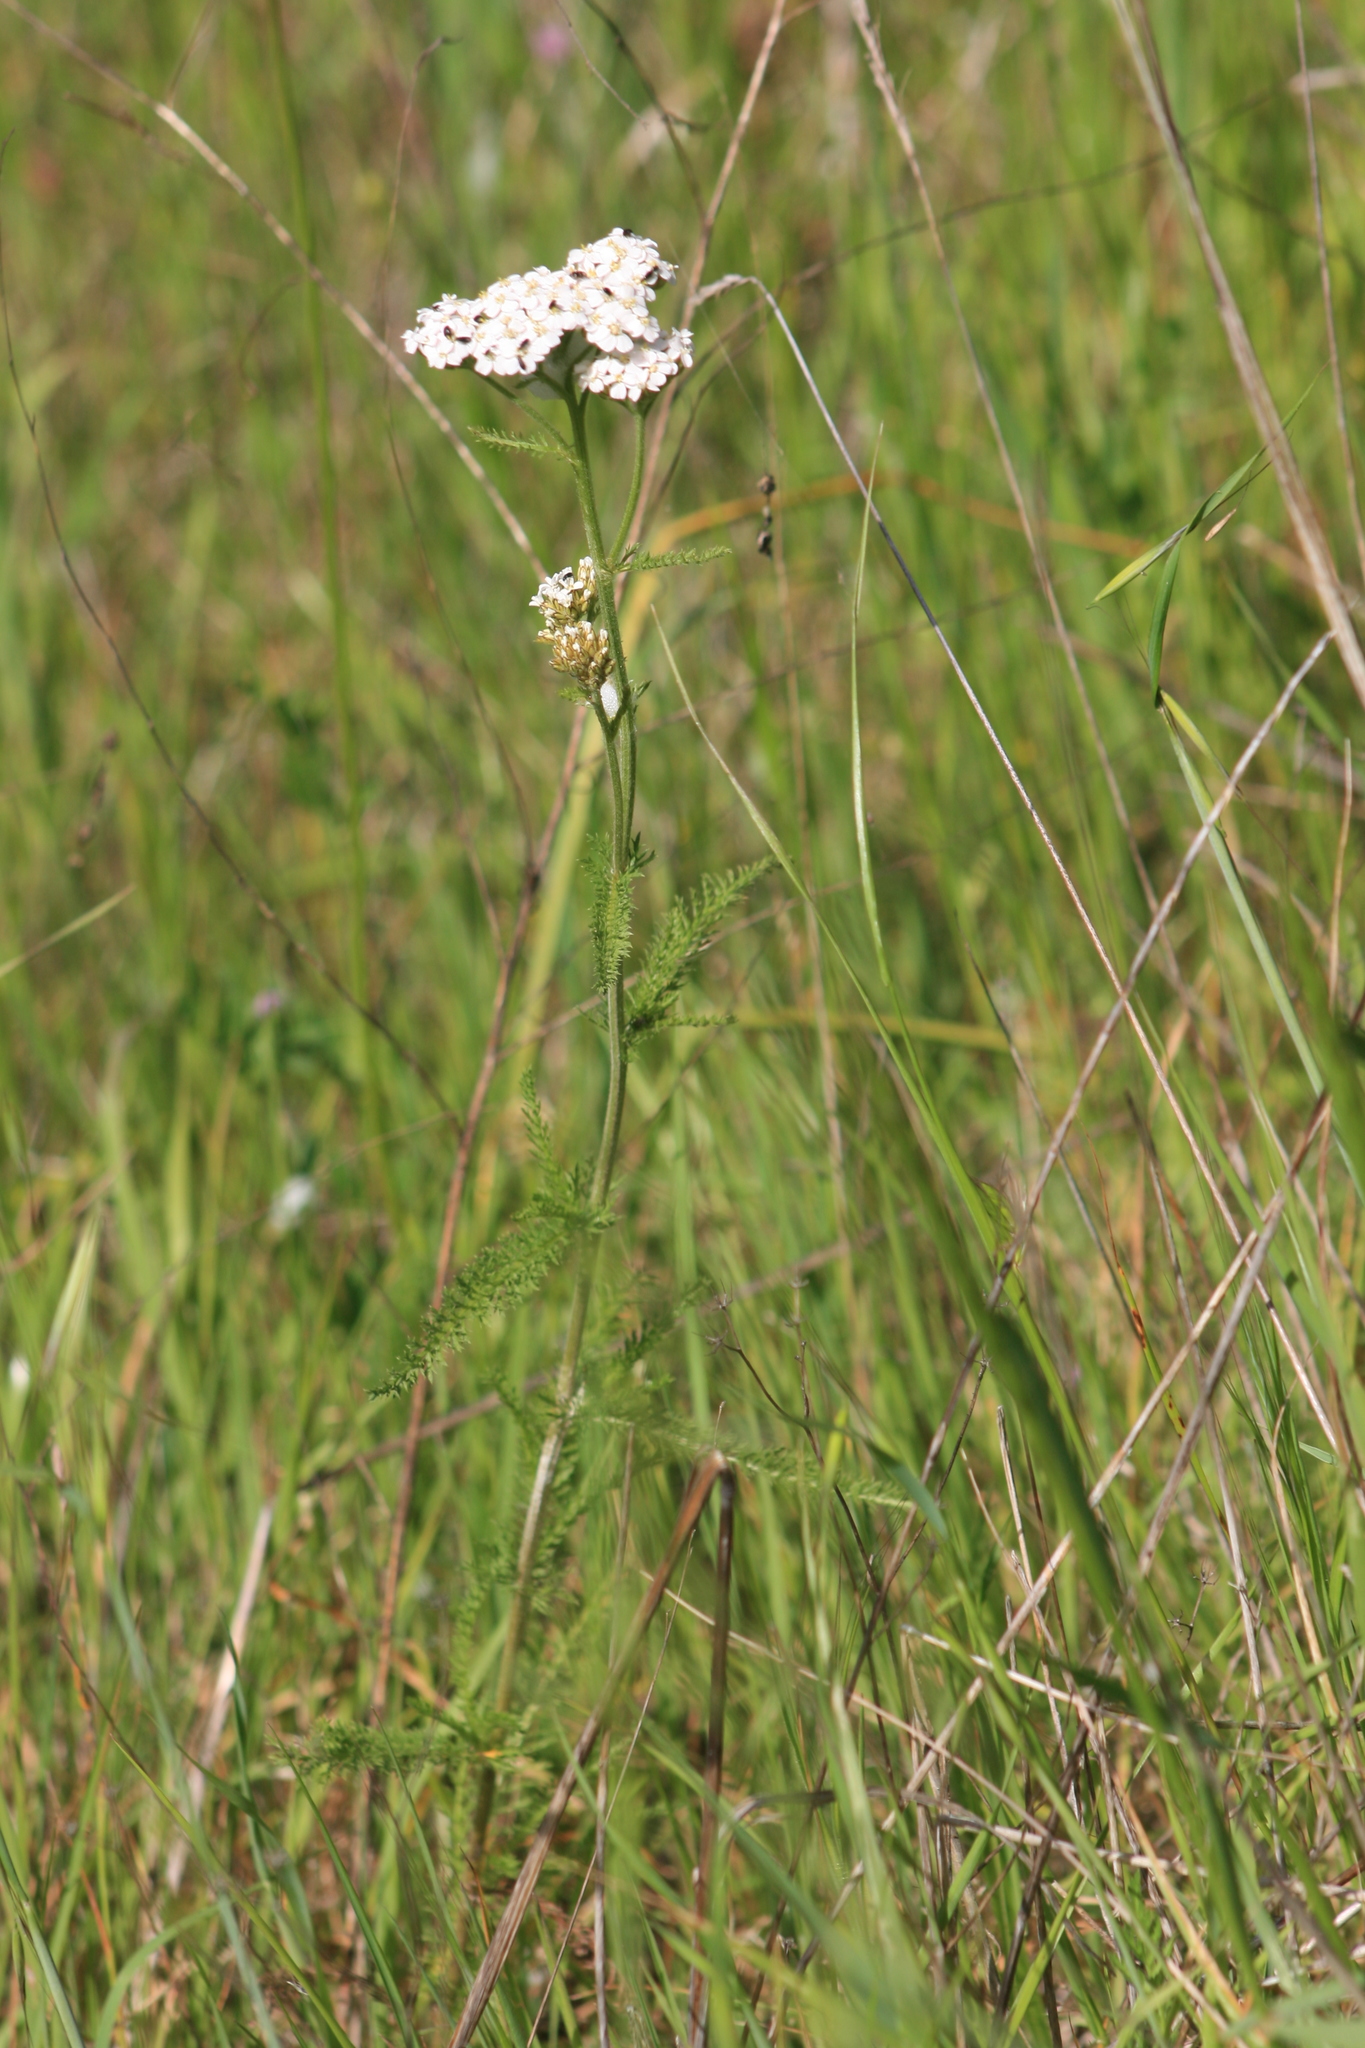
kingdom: Plantae
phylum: Tracheophyta
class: Magnoliopsida
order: Asterales
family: Asteraceae
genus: Achillea
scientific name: Achillea millefolium
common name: Yarrow
